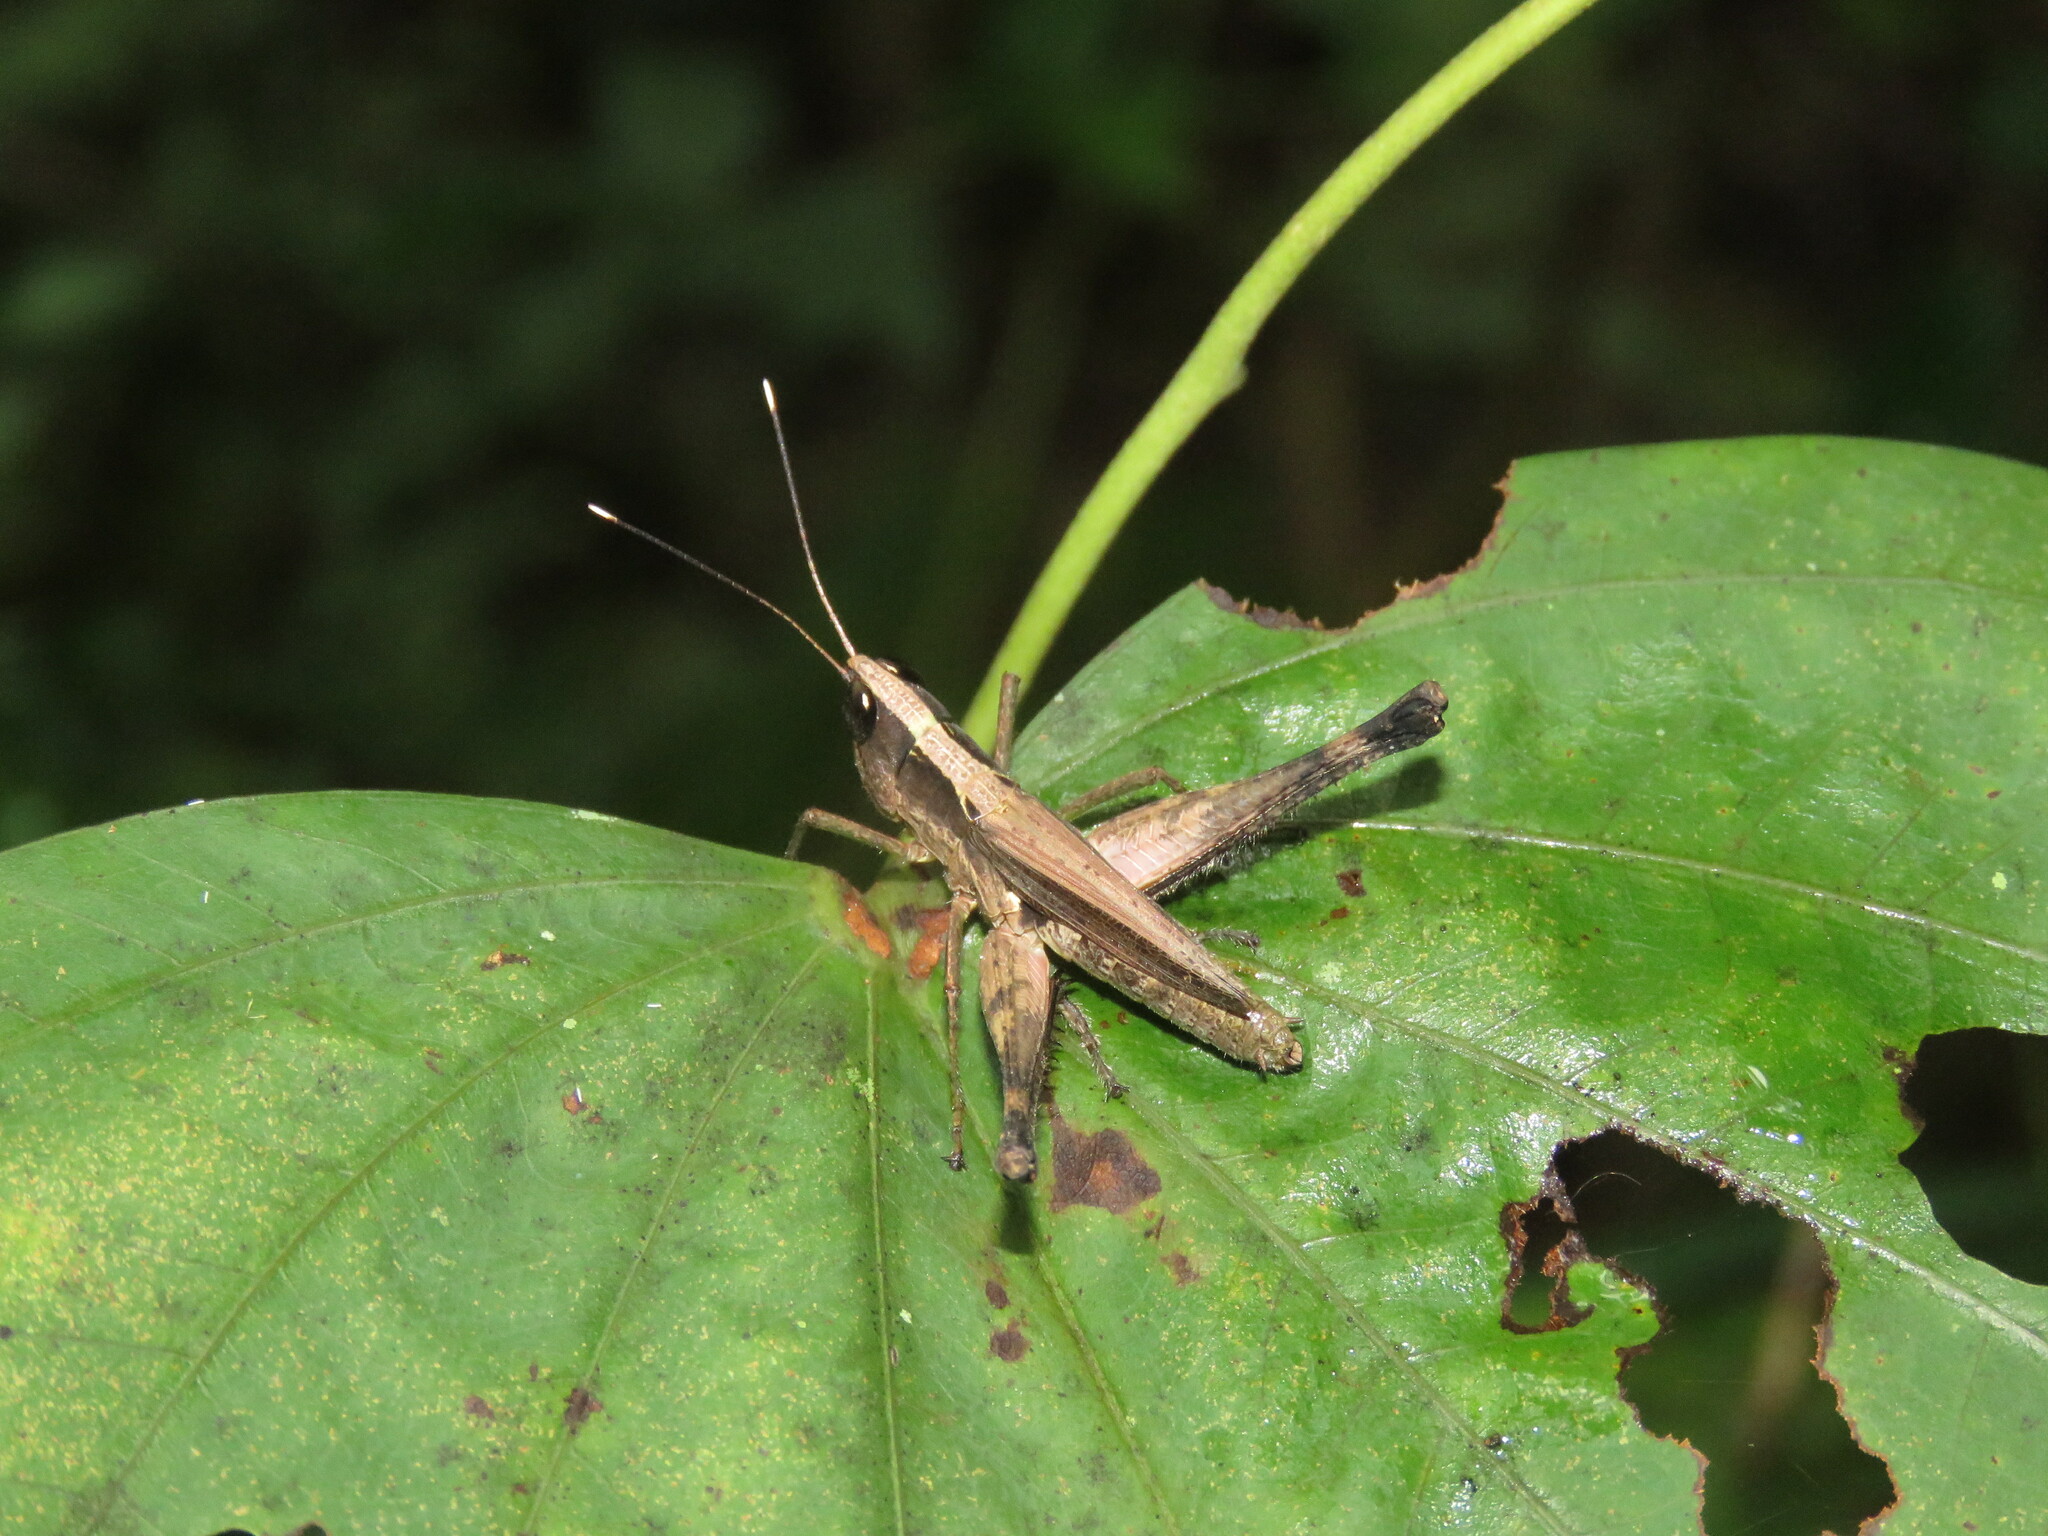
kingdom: Animalia
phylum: Arthropoda
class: Insecta
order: Orthoptera
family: Acrididae
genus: Compsacris
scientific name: Compsacris pulcher
